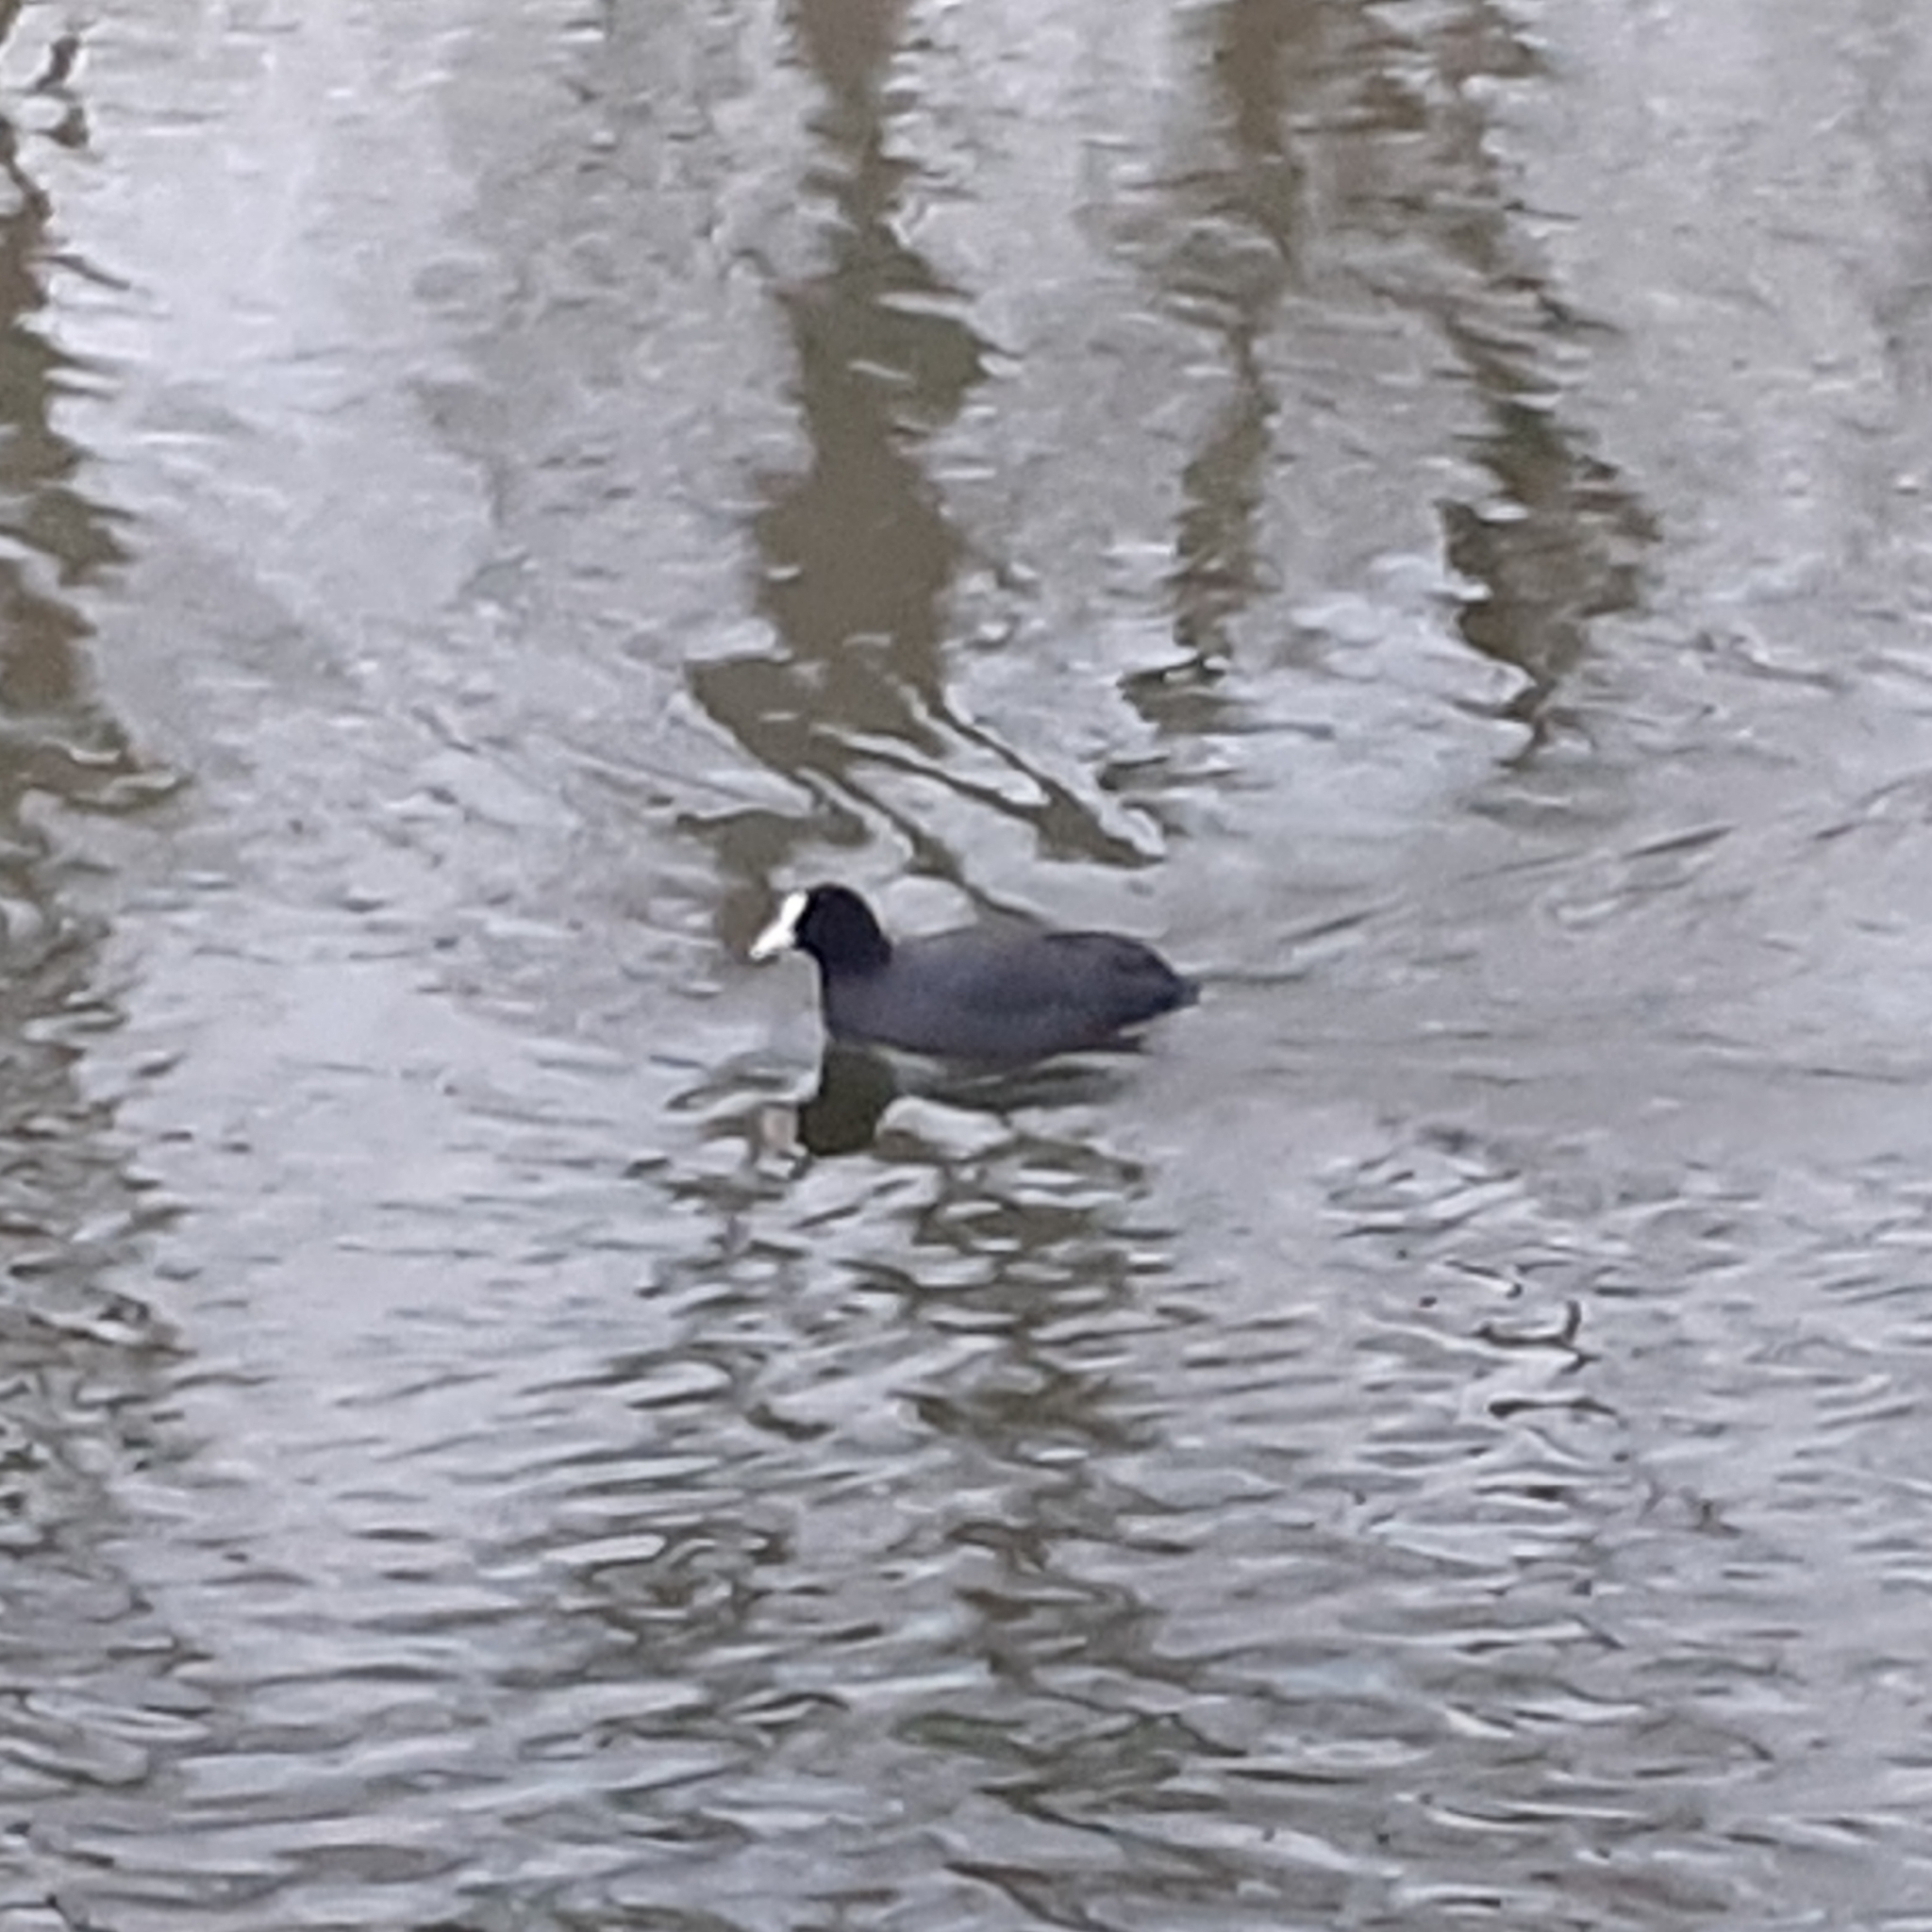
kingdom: Animalia
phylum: Chordata
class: Aves
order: Gruiformes
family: Rallidae
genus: Fulica
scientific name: Fulica atra
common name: Eurasian coot
